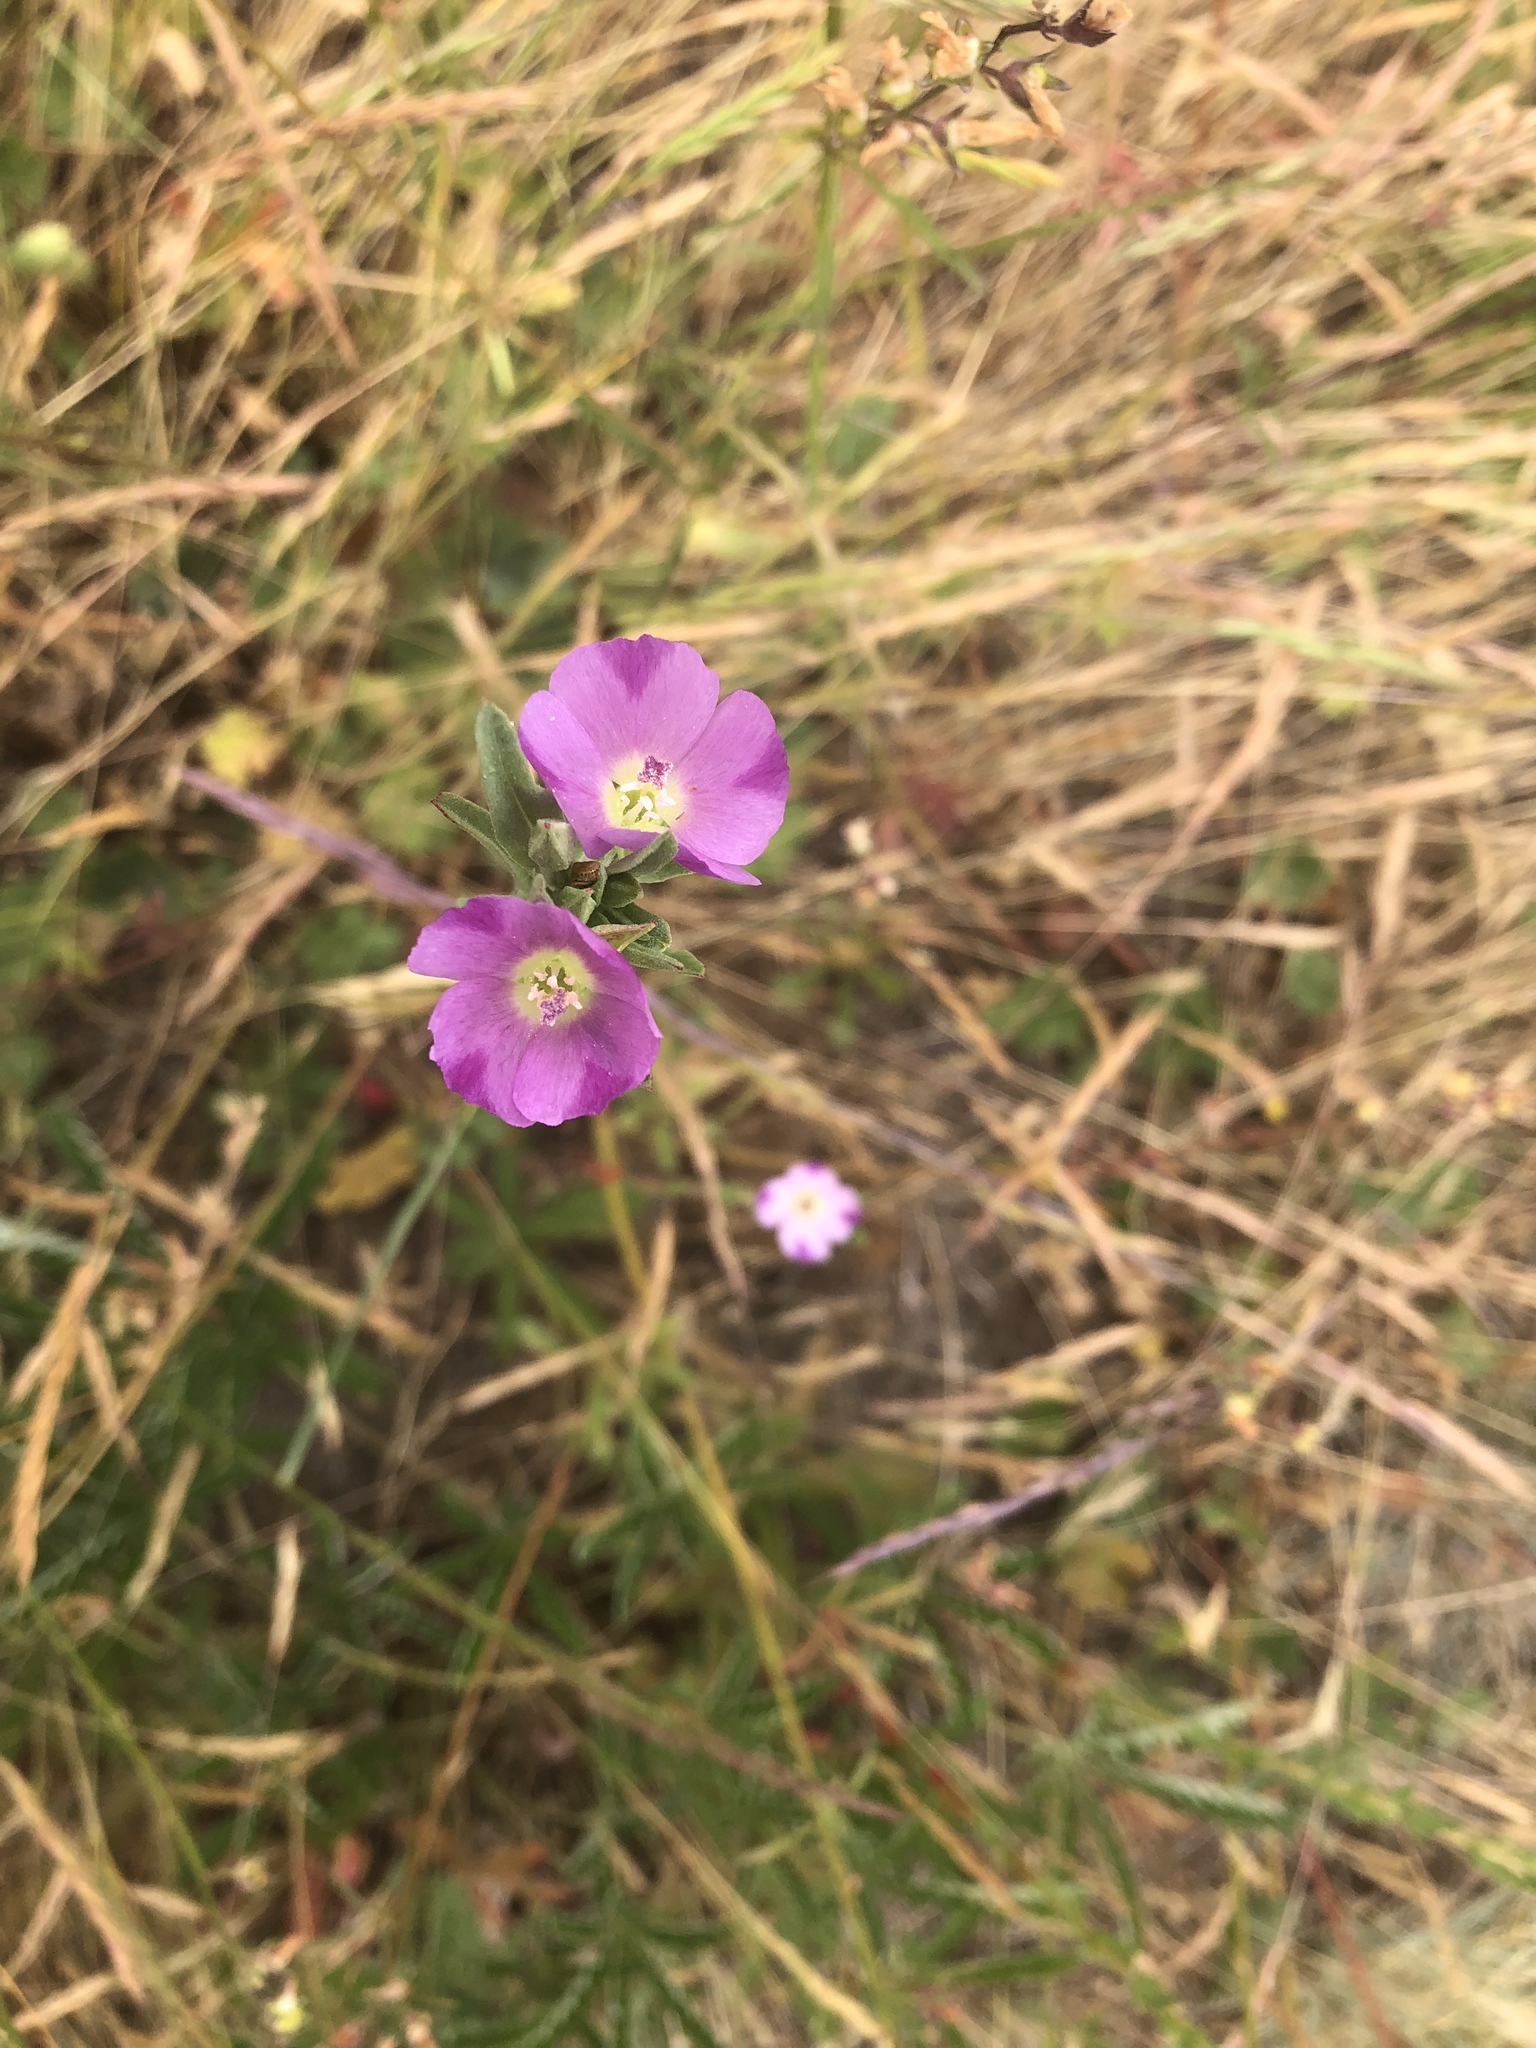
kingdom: Plantae
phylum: Tracheophyta
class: Magnoliopsida
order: Myrtales
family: Onagraceae
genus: Clarkia
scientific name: Clarkia purpurea
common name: Purple clarkia
